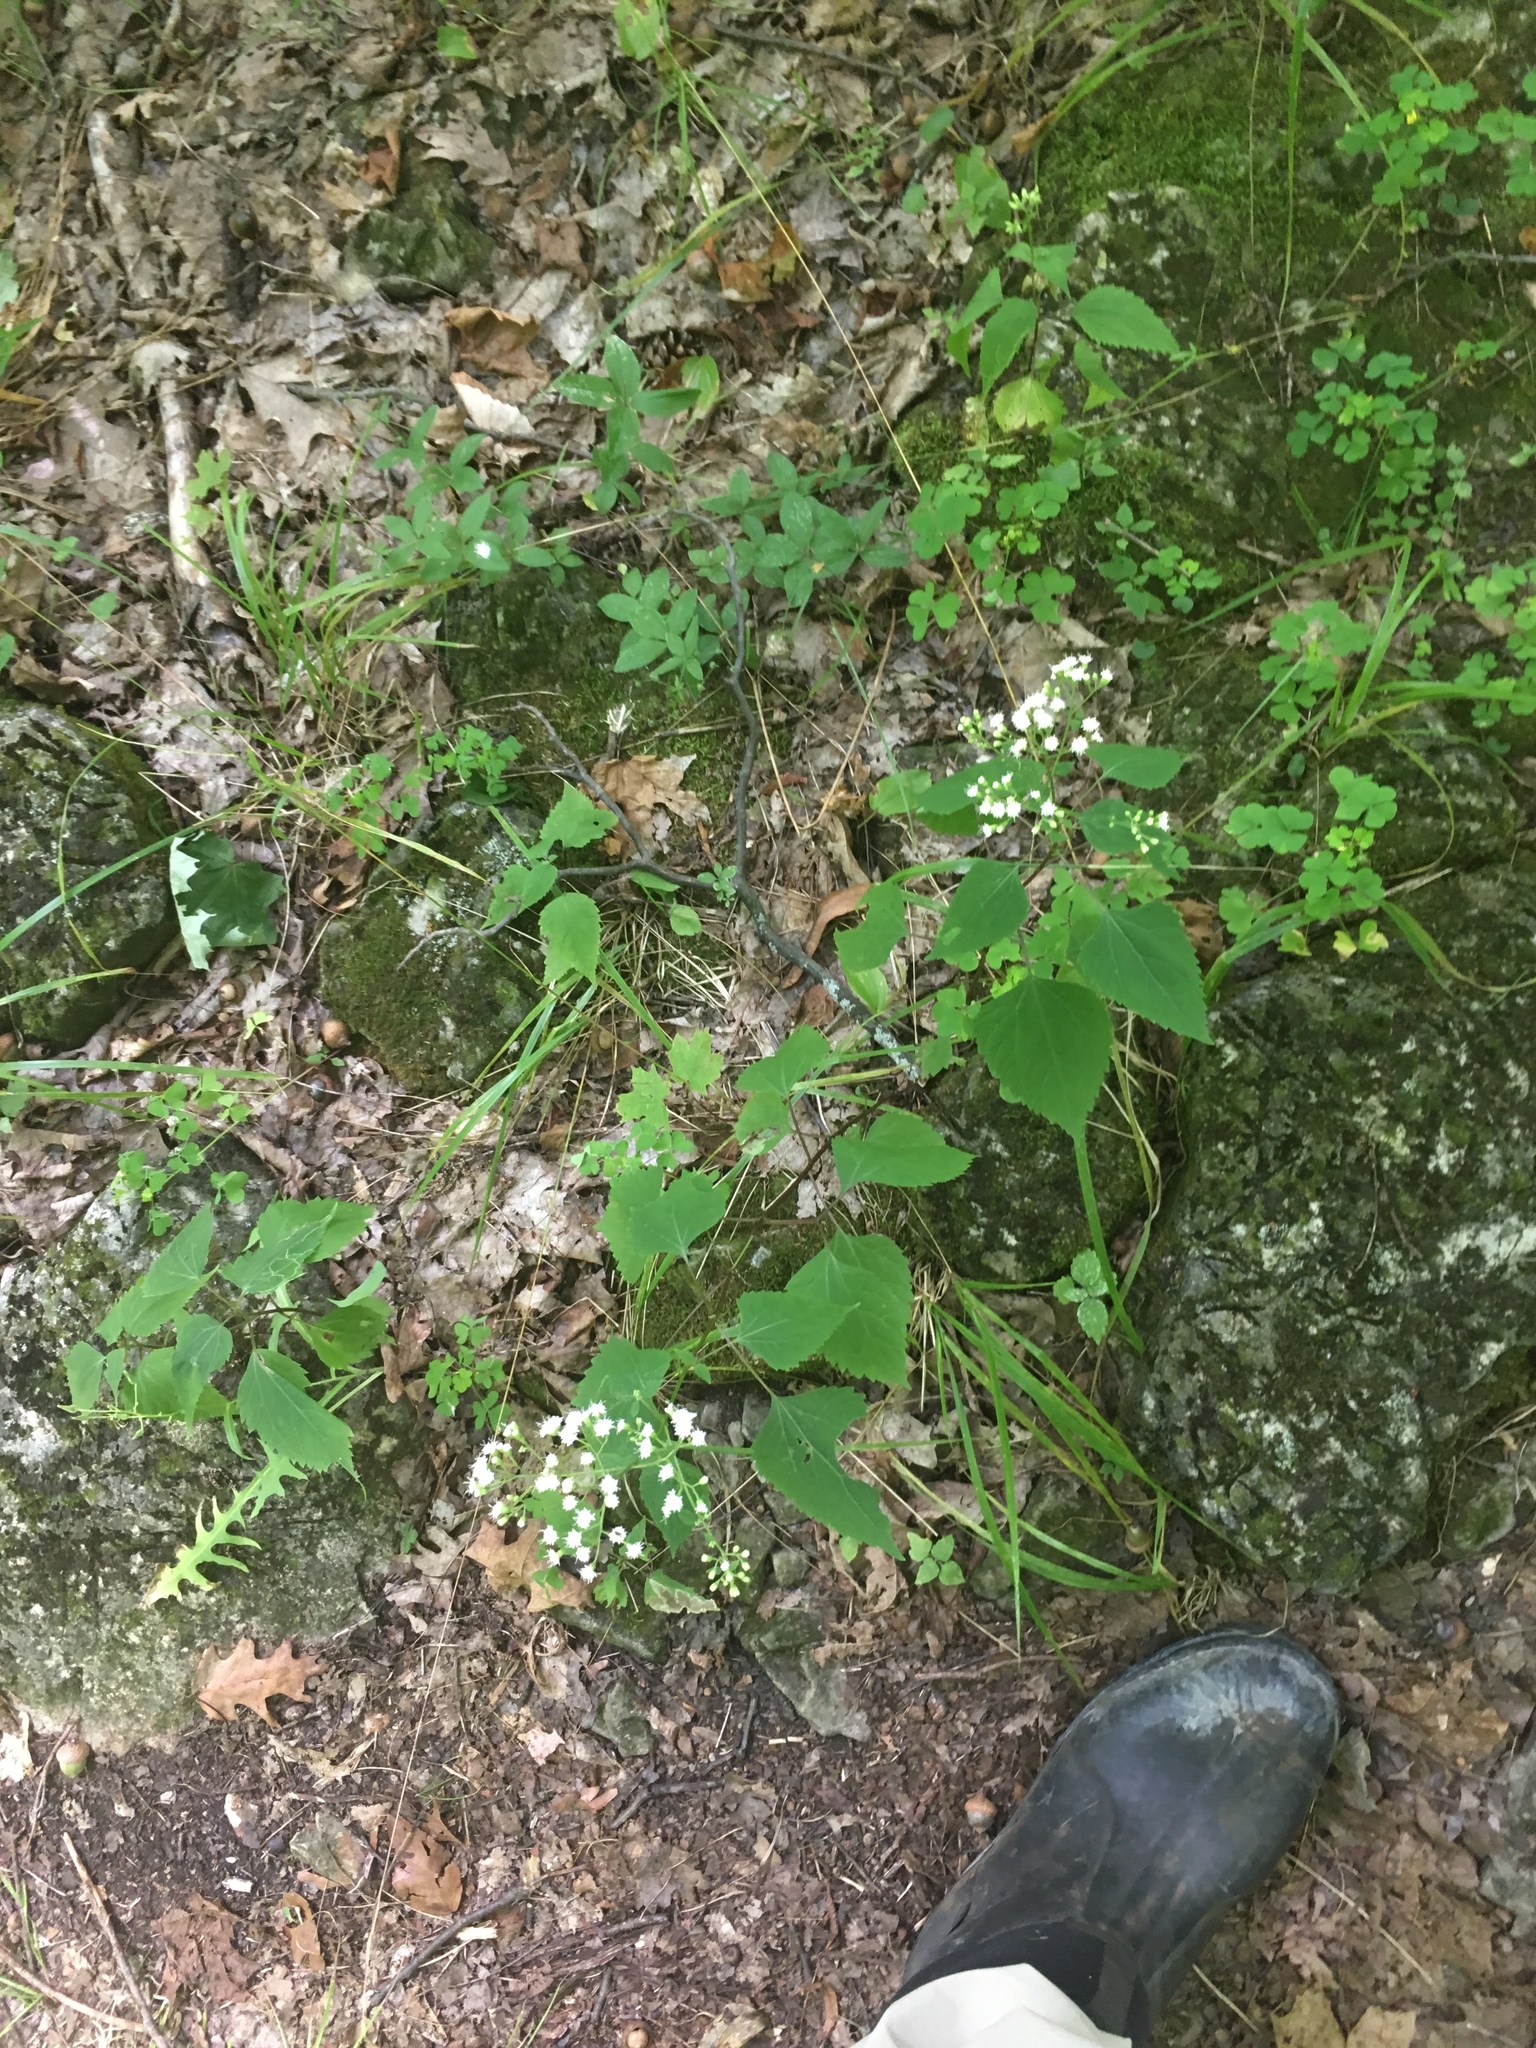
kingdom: Plantae
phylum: Tracheophyta
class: Magnoliopsida
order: Asterales
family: Asteraceae
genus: Ageratina
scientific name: Ageratina altissima
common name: White snakeroot
